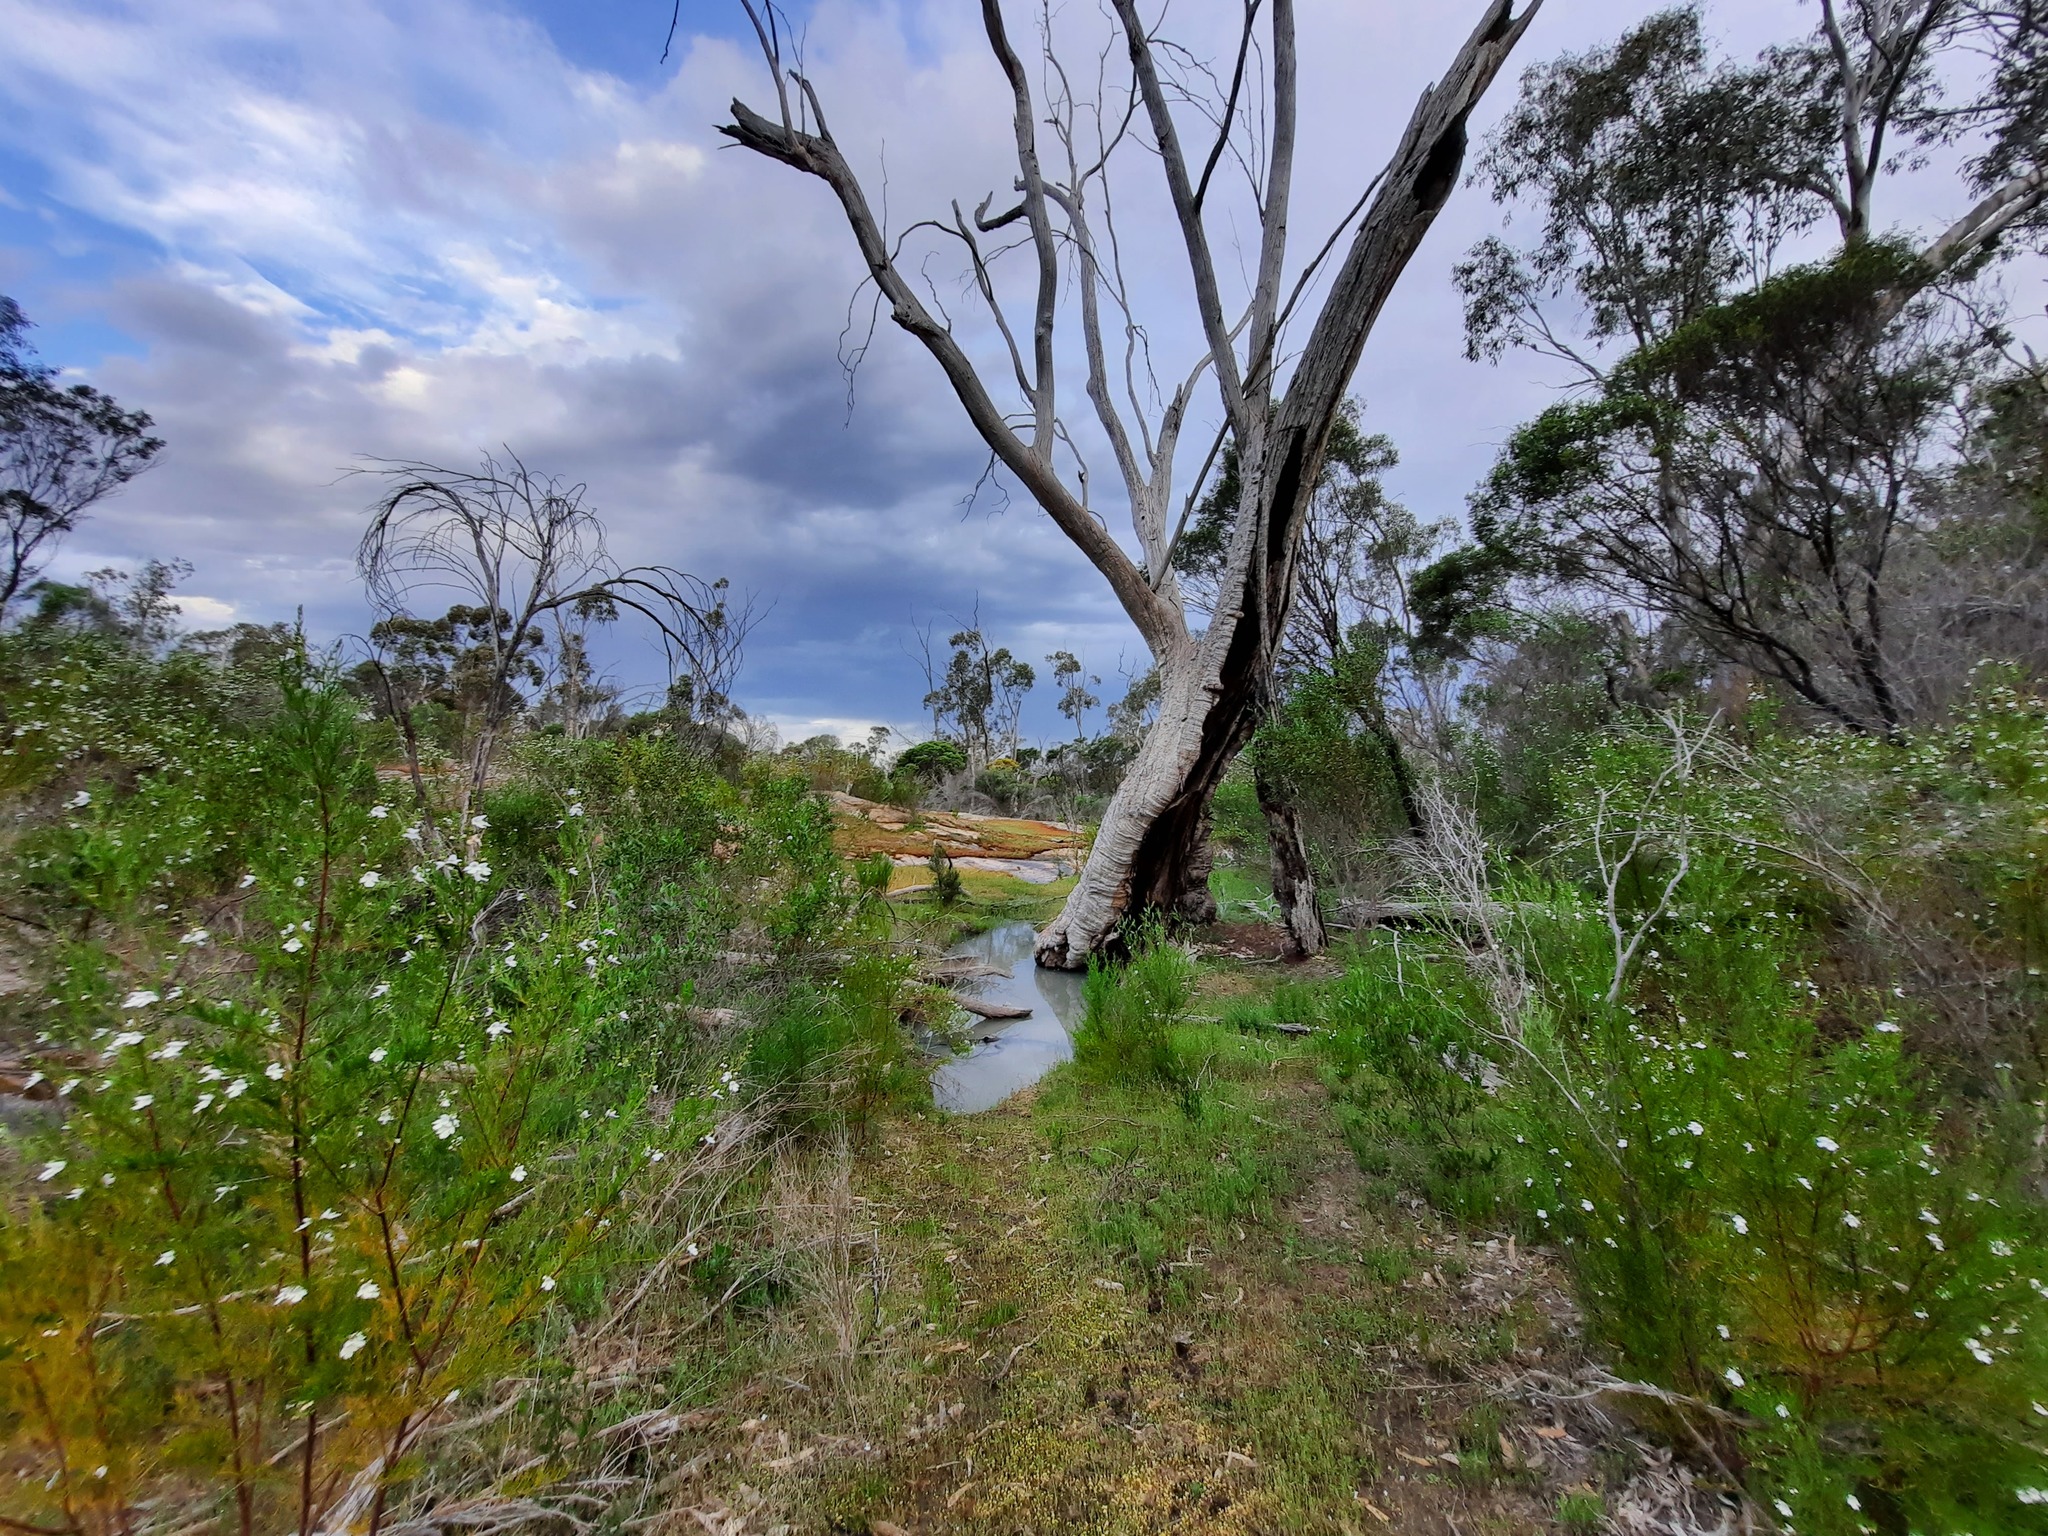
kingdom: Plantae
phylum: Tracheophyta
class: Magnoliopsida
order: Lamiales
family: Lamiaceae
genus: Prostanthera
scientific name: Prostanthera nivea
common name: Snowy mintbush
